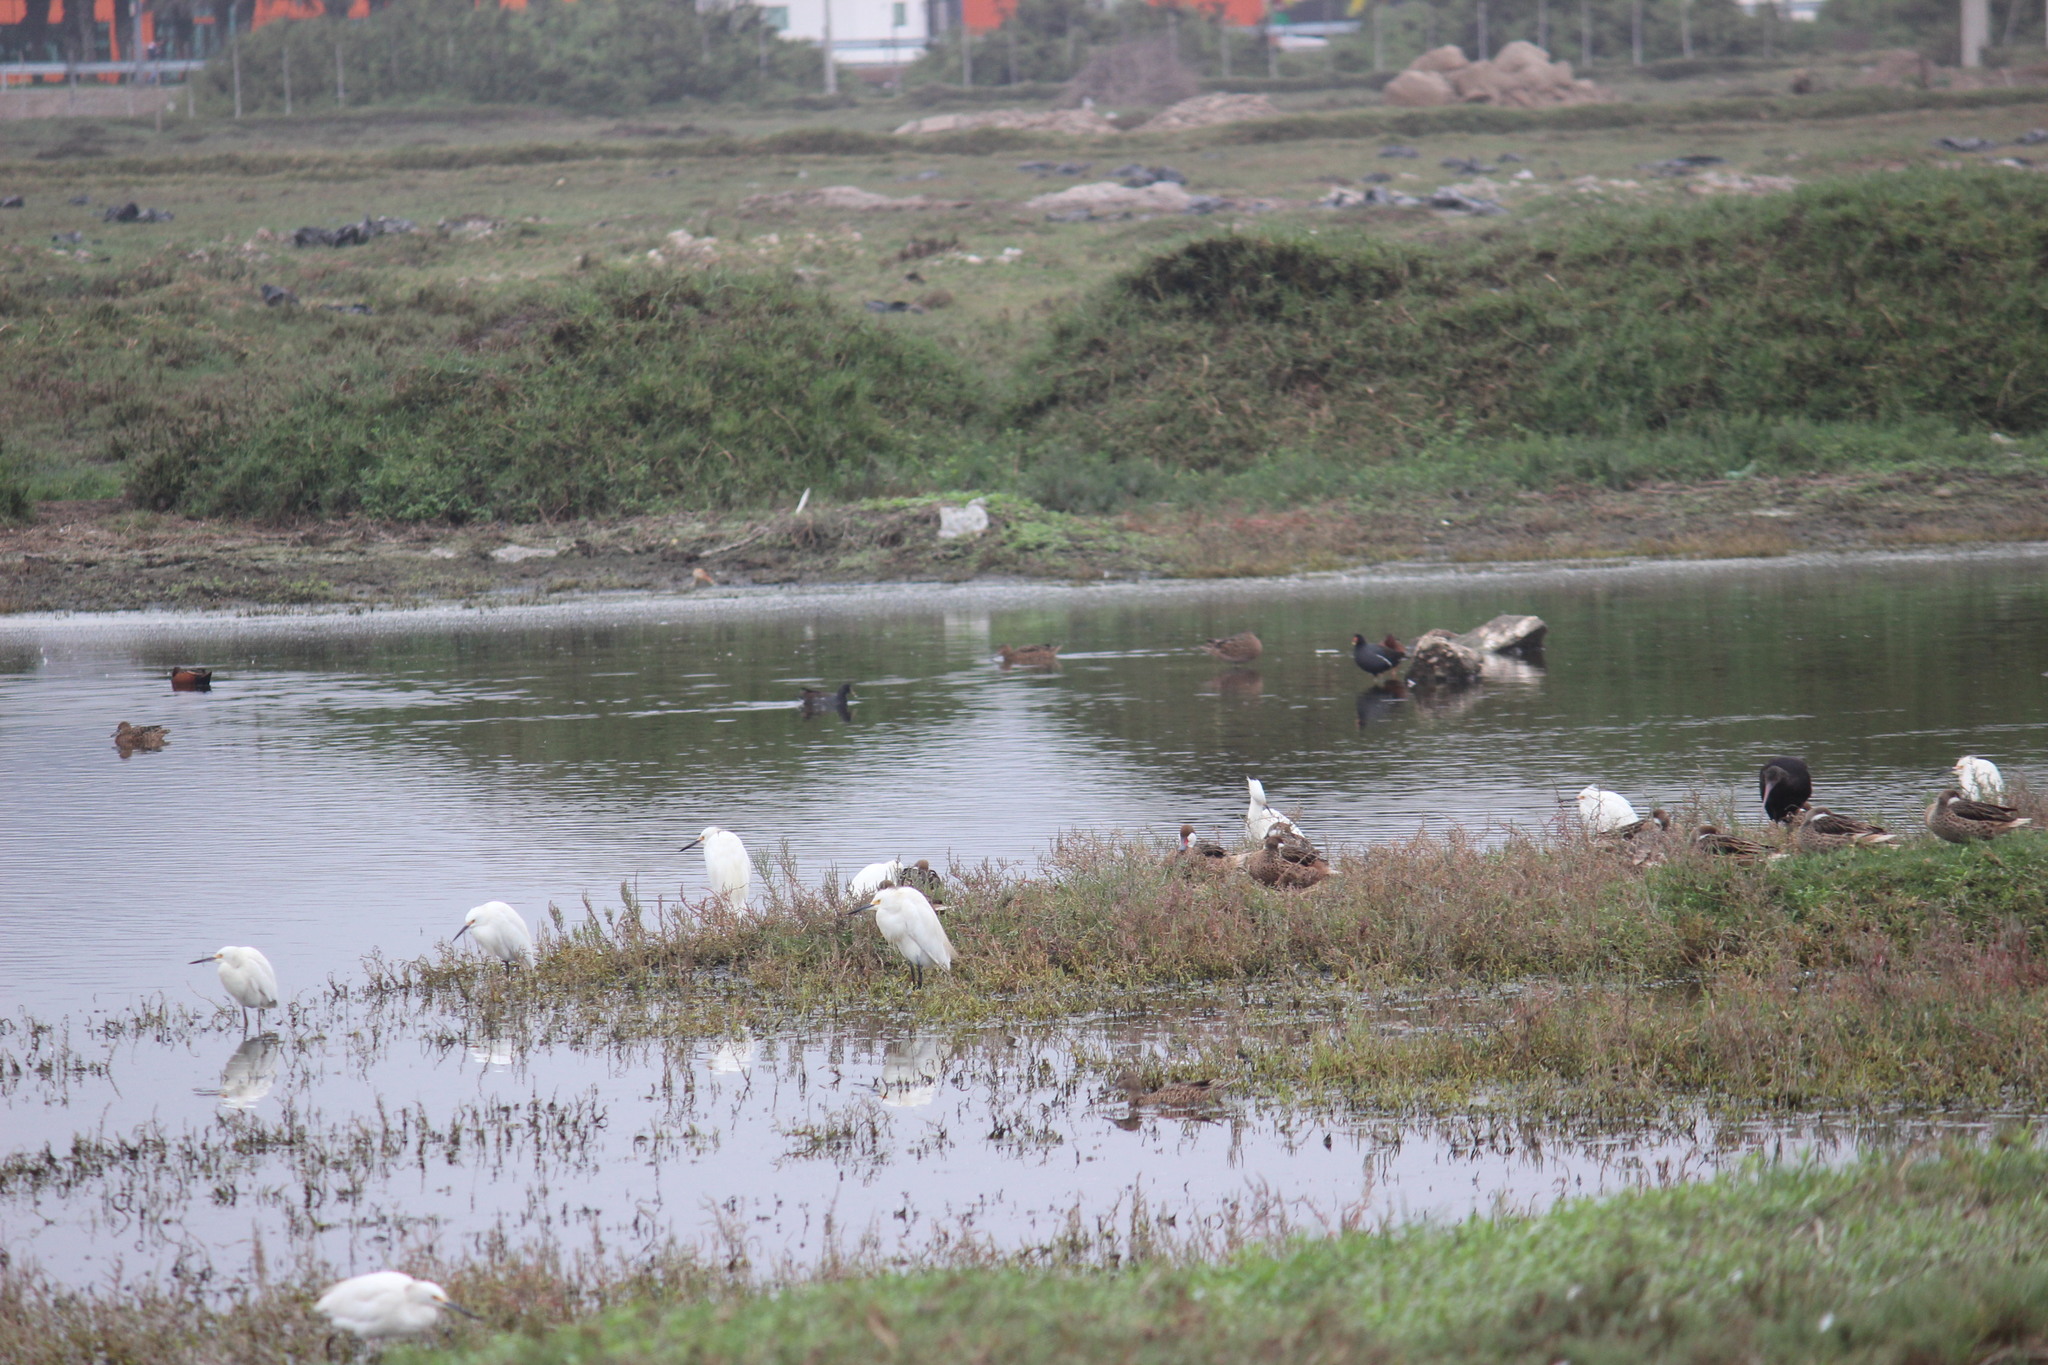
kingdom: Animalia
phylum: Chordata
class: Aves
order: Gruiformes
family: Rallidae
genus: Gallinula
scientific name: Gallinula chloropus
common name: Common moorhen
